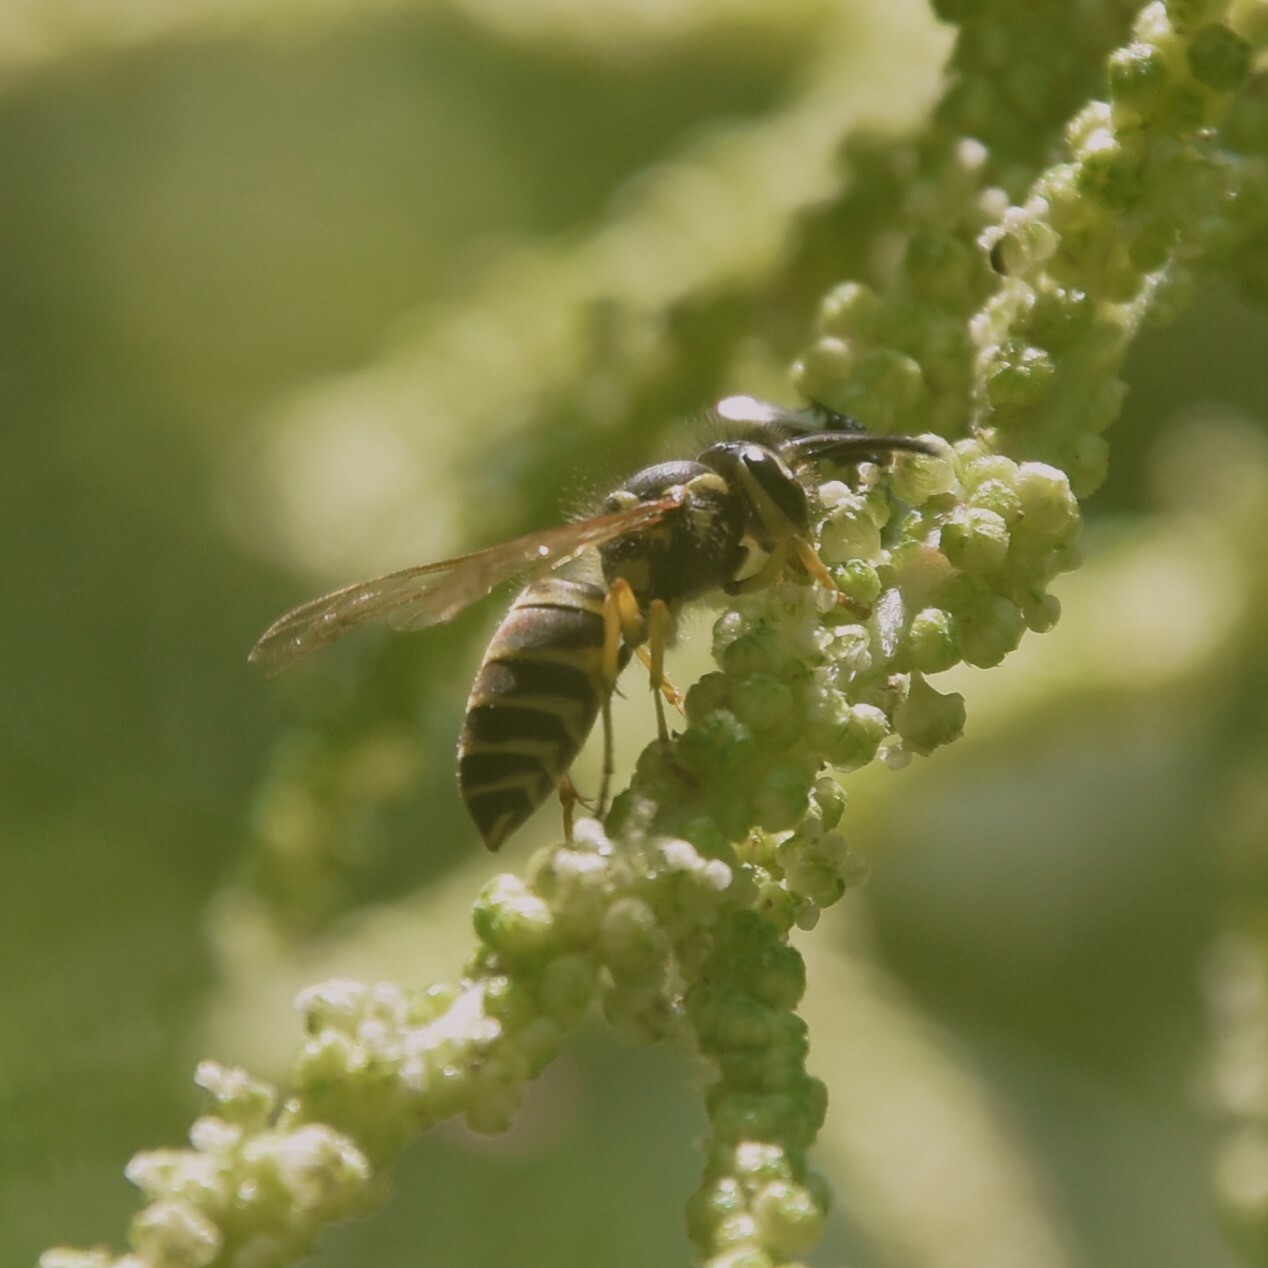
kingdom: Animalia
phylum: Arthropoda
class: Insecta
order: Hymenoptera
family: Vespidae
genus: Vespula
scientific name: Vespula flaviceps
